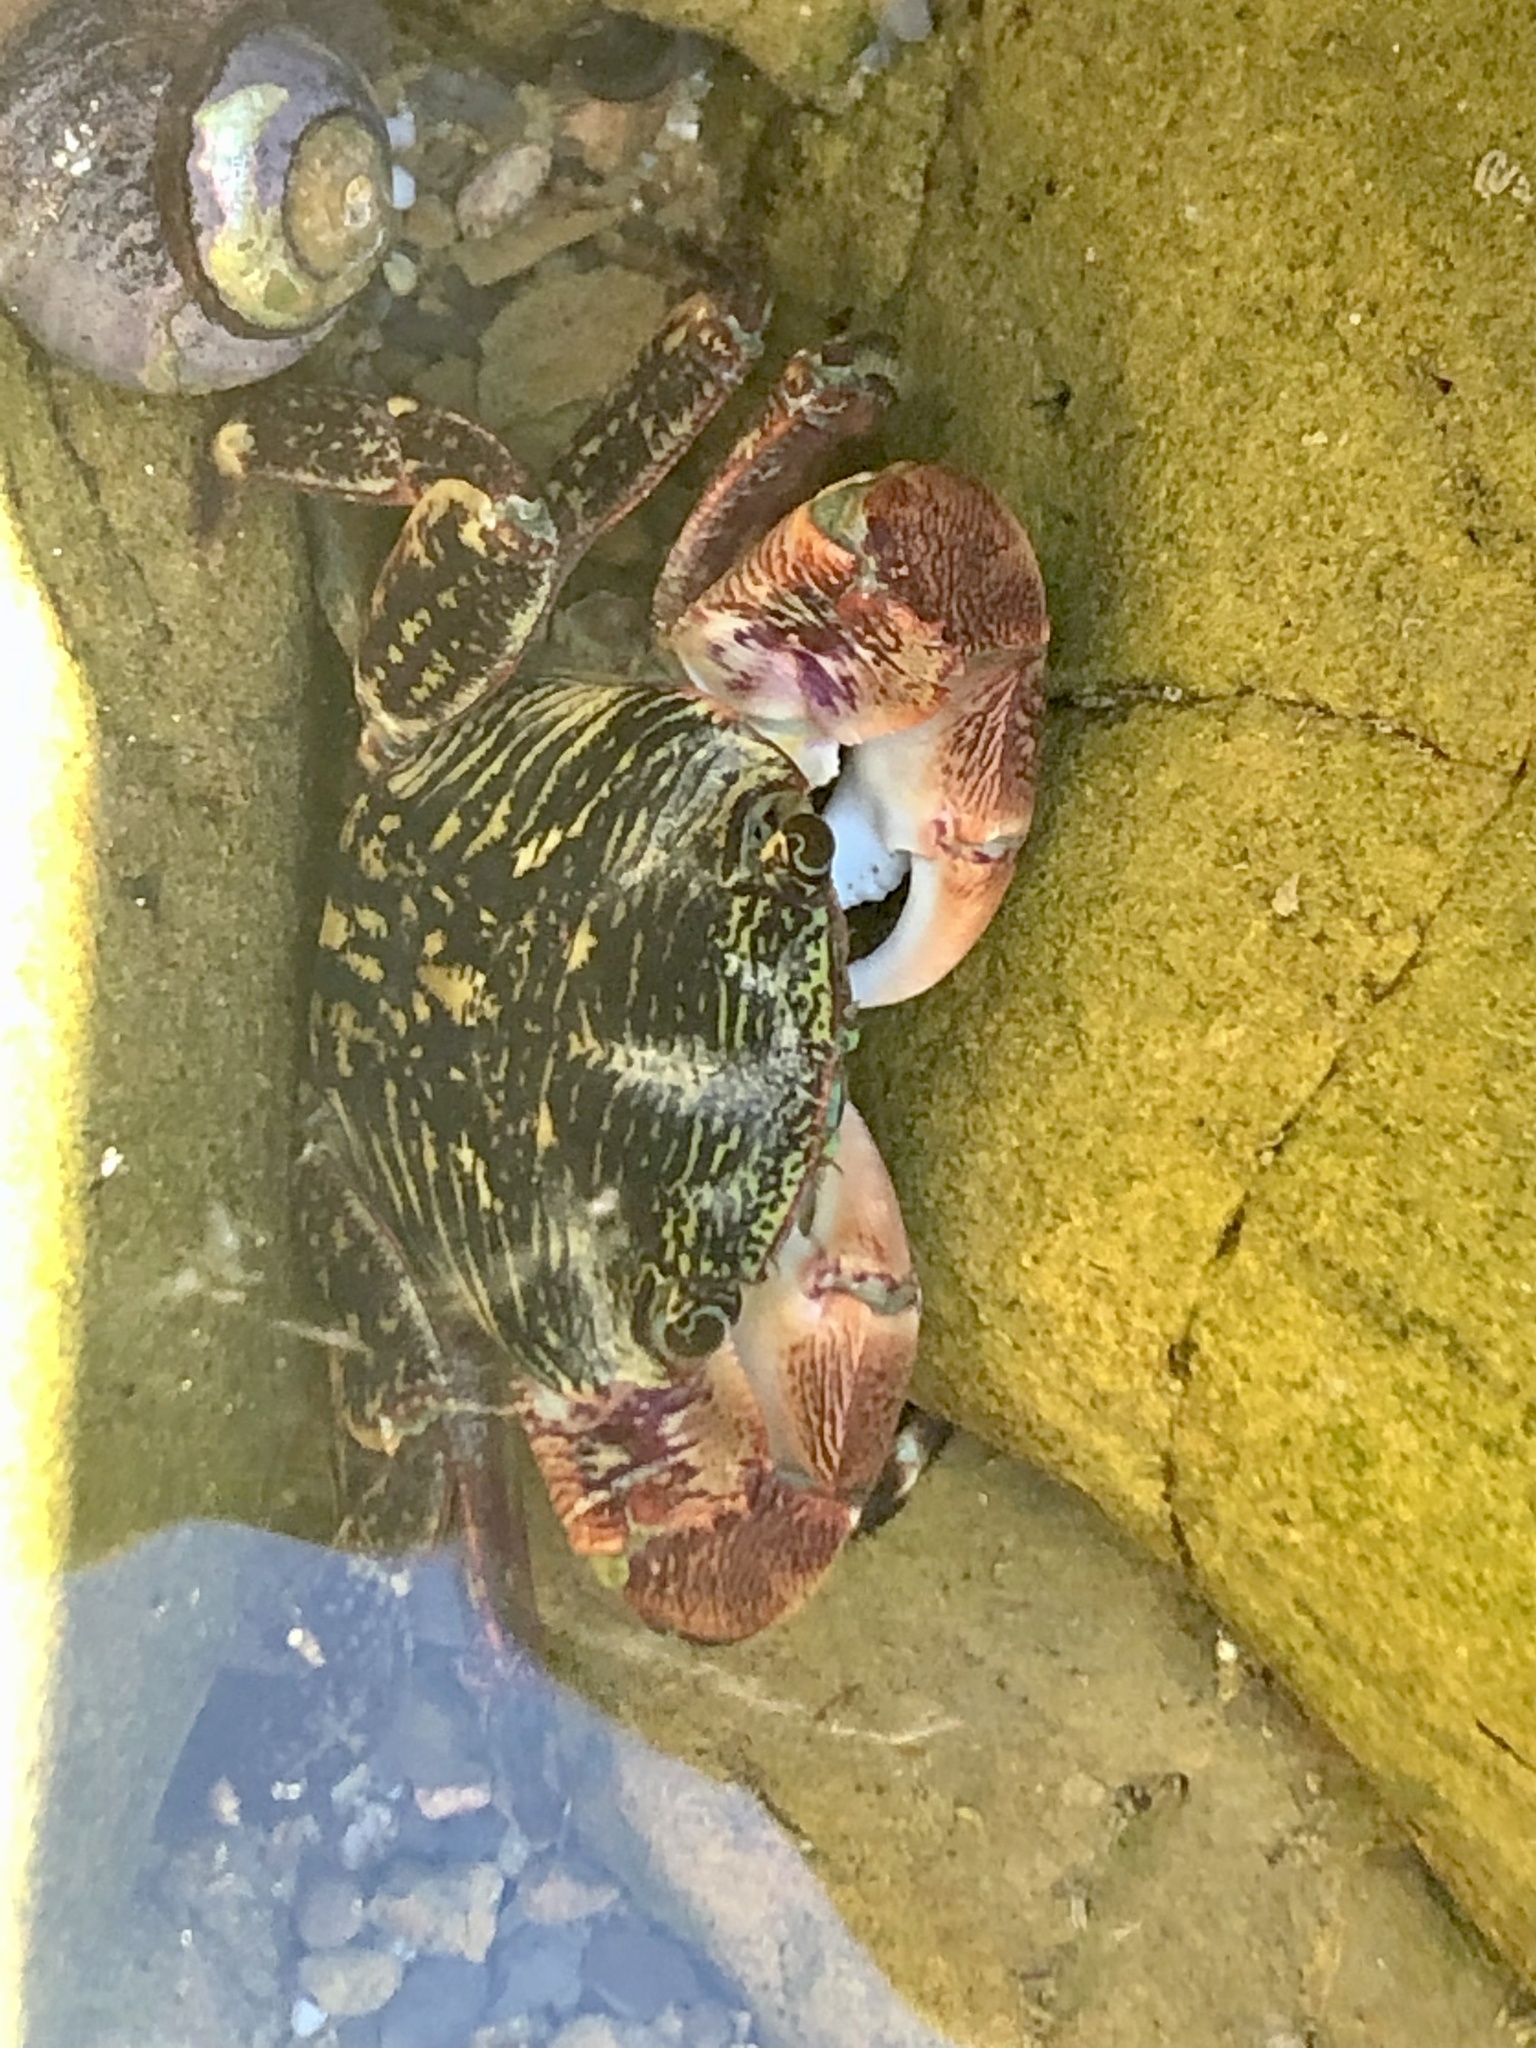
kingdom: Animalia
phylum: Arthropoda
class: Malacostraca
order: Decapoda
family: Grapsidae
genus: Pachygrapsus
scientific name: Pachygrapsus crassipes
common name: Striped shore crab
